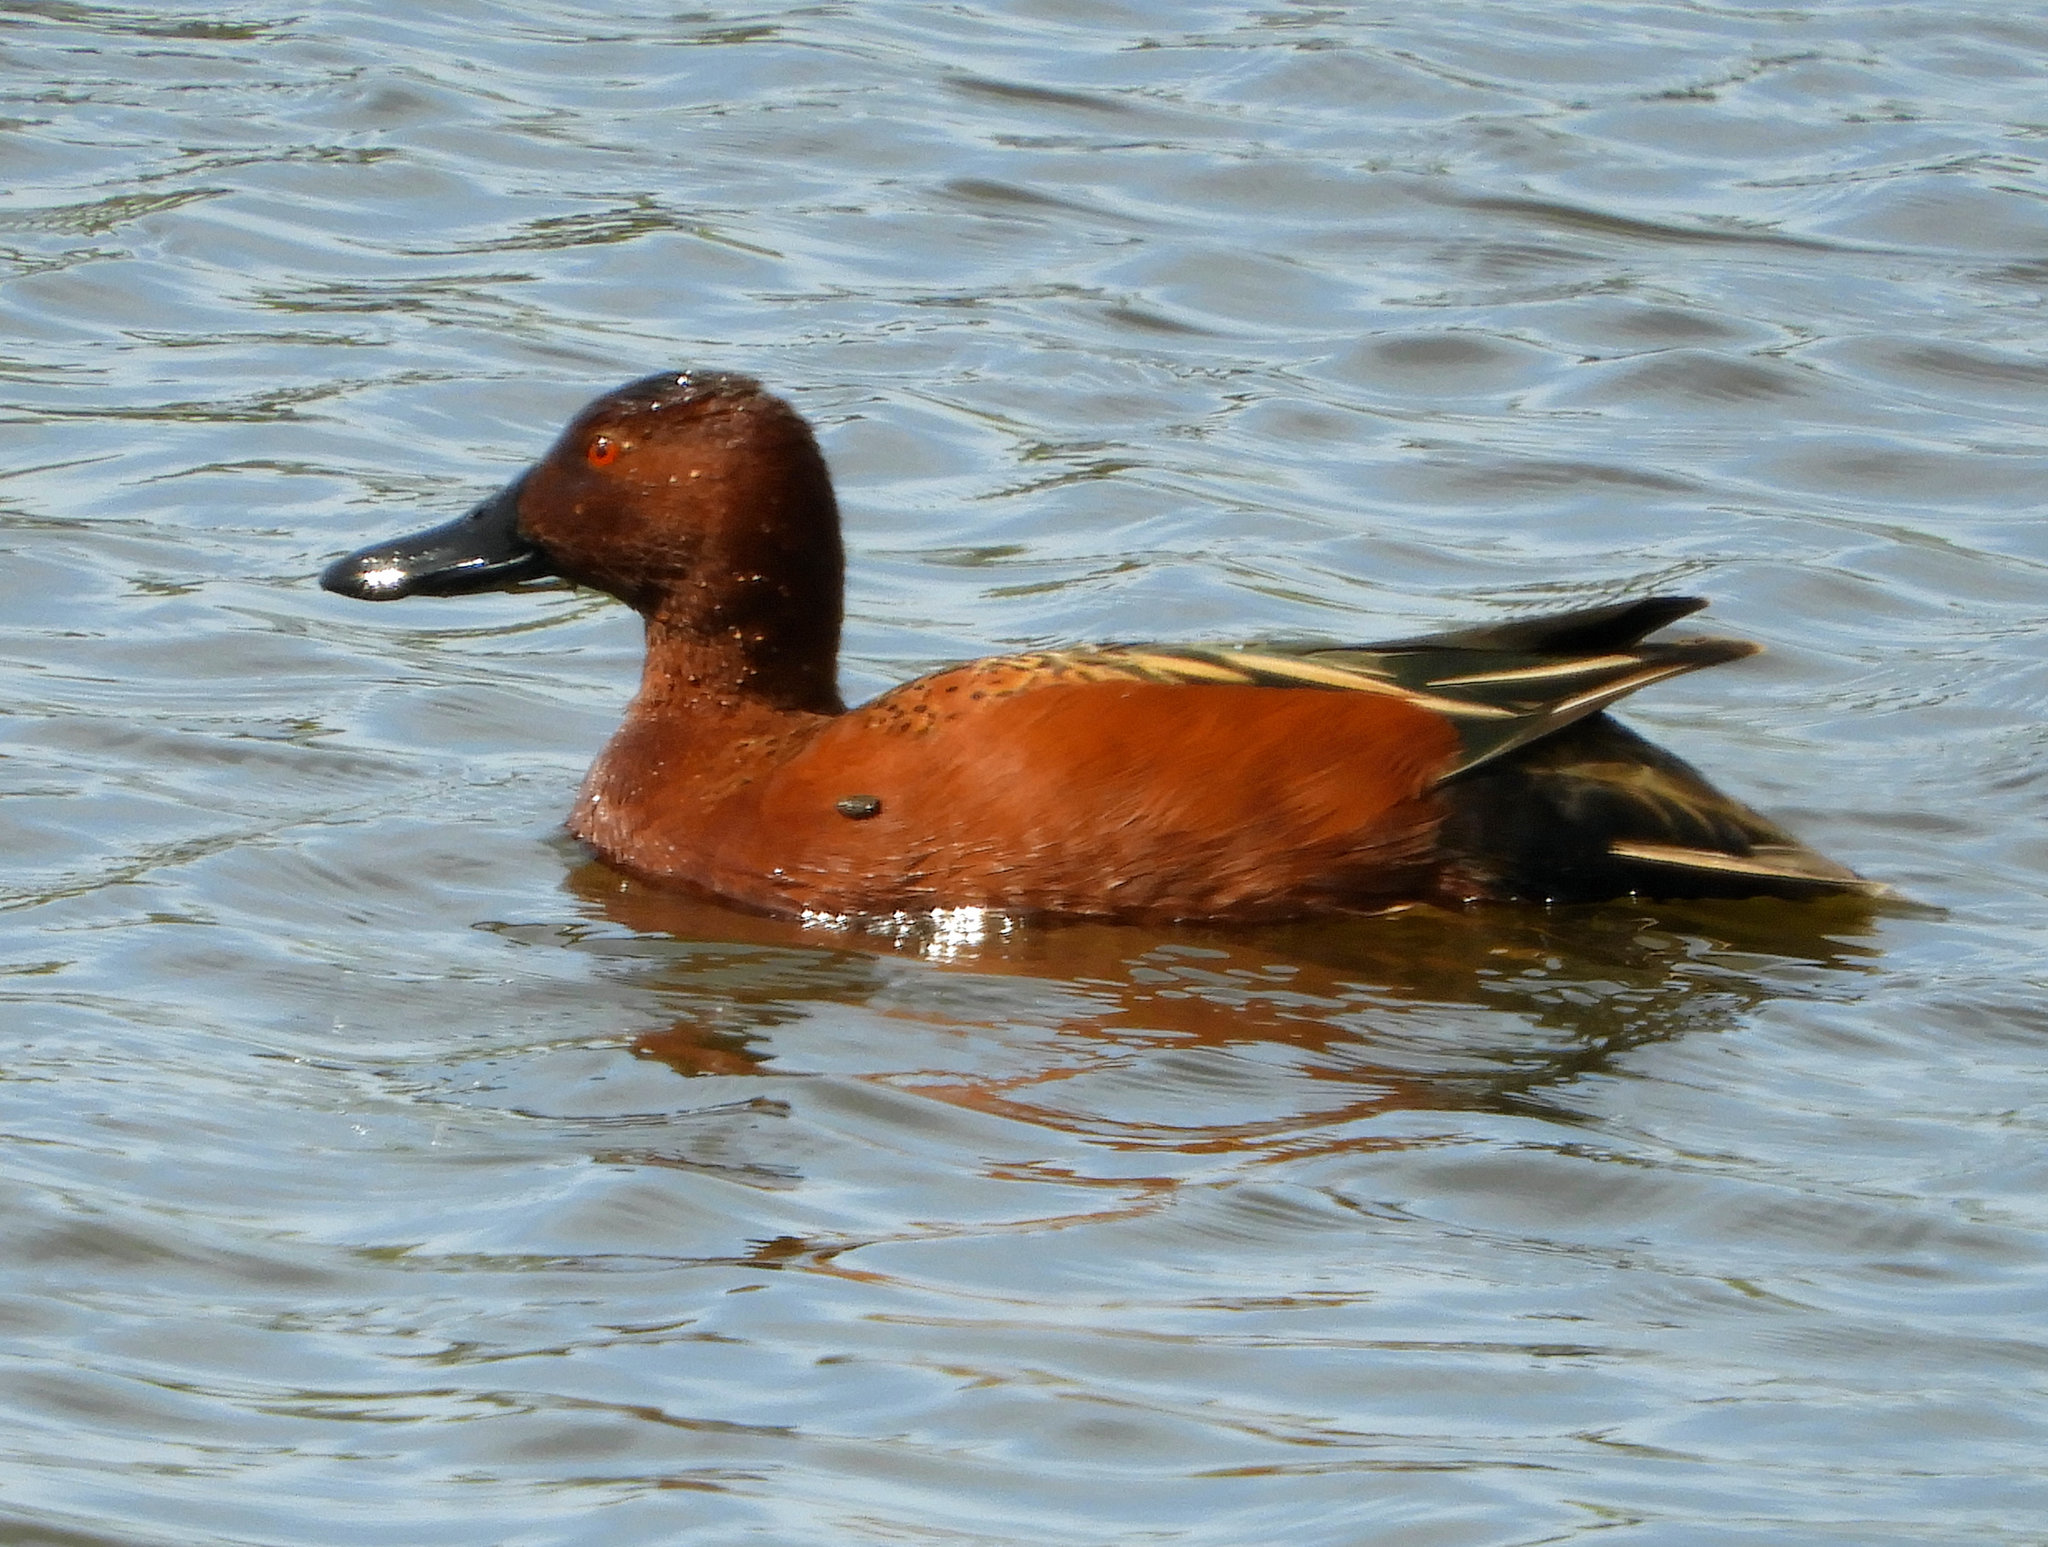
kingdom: Animalia
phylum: Chordata
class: Aves
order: Anseriformes
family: Anatidae
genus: Spatula
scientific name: Spatula cyanoptera
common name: Cinnamon teal
